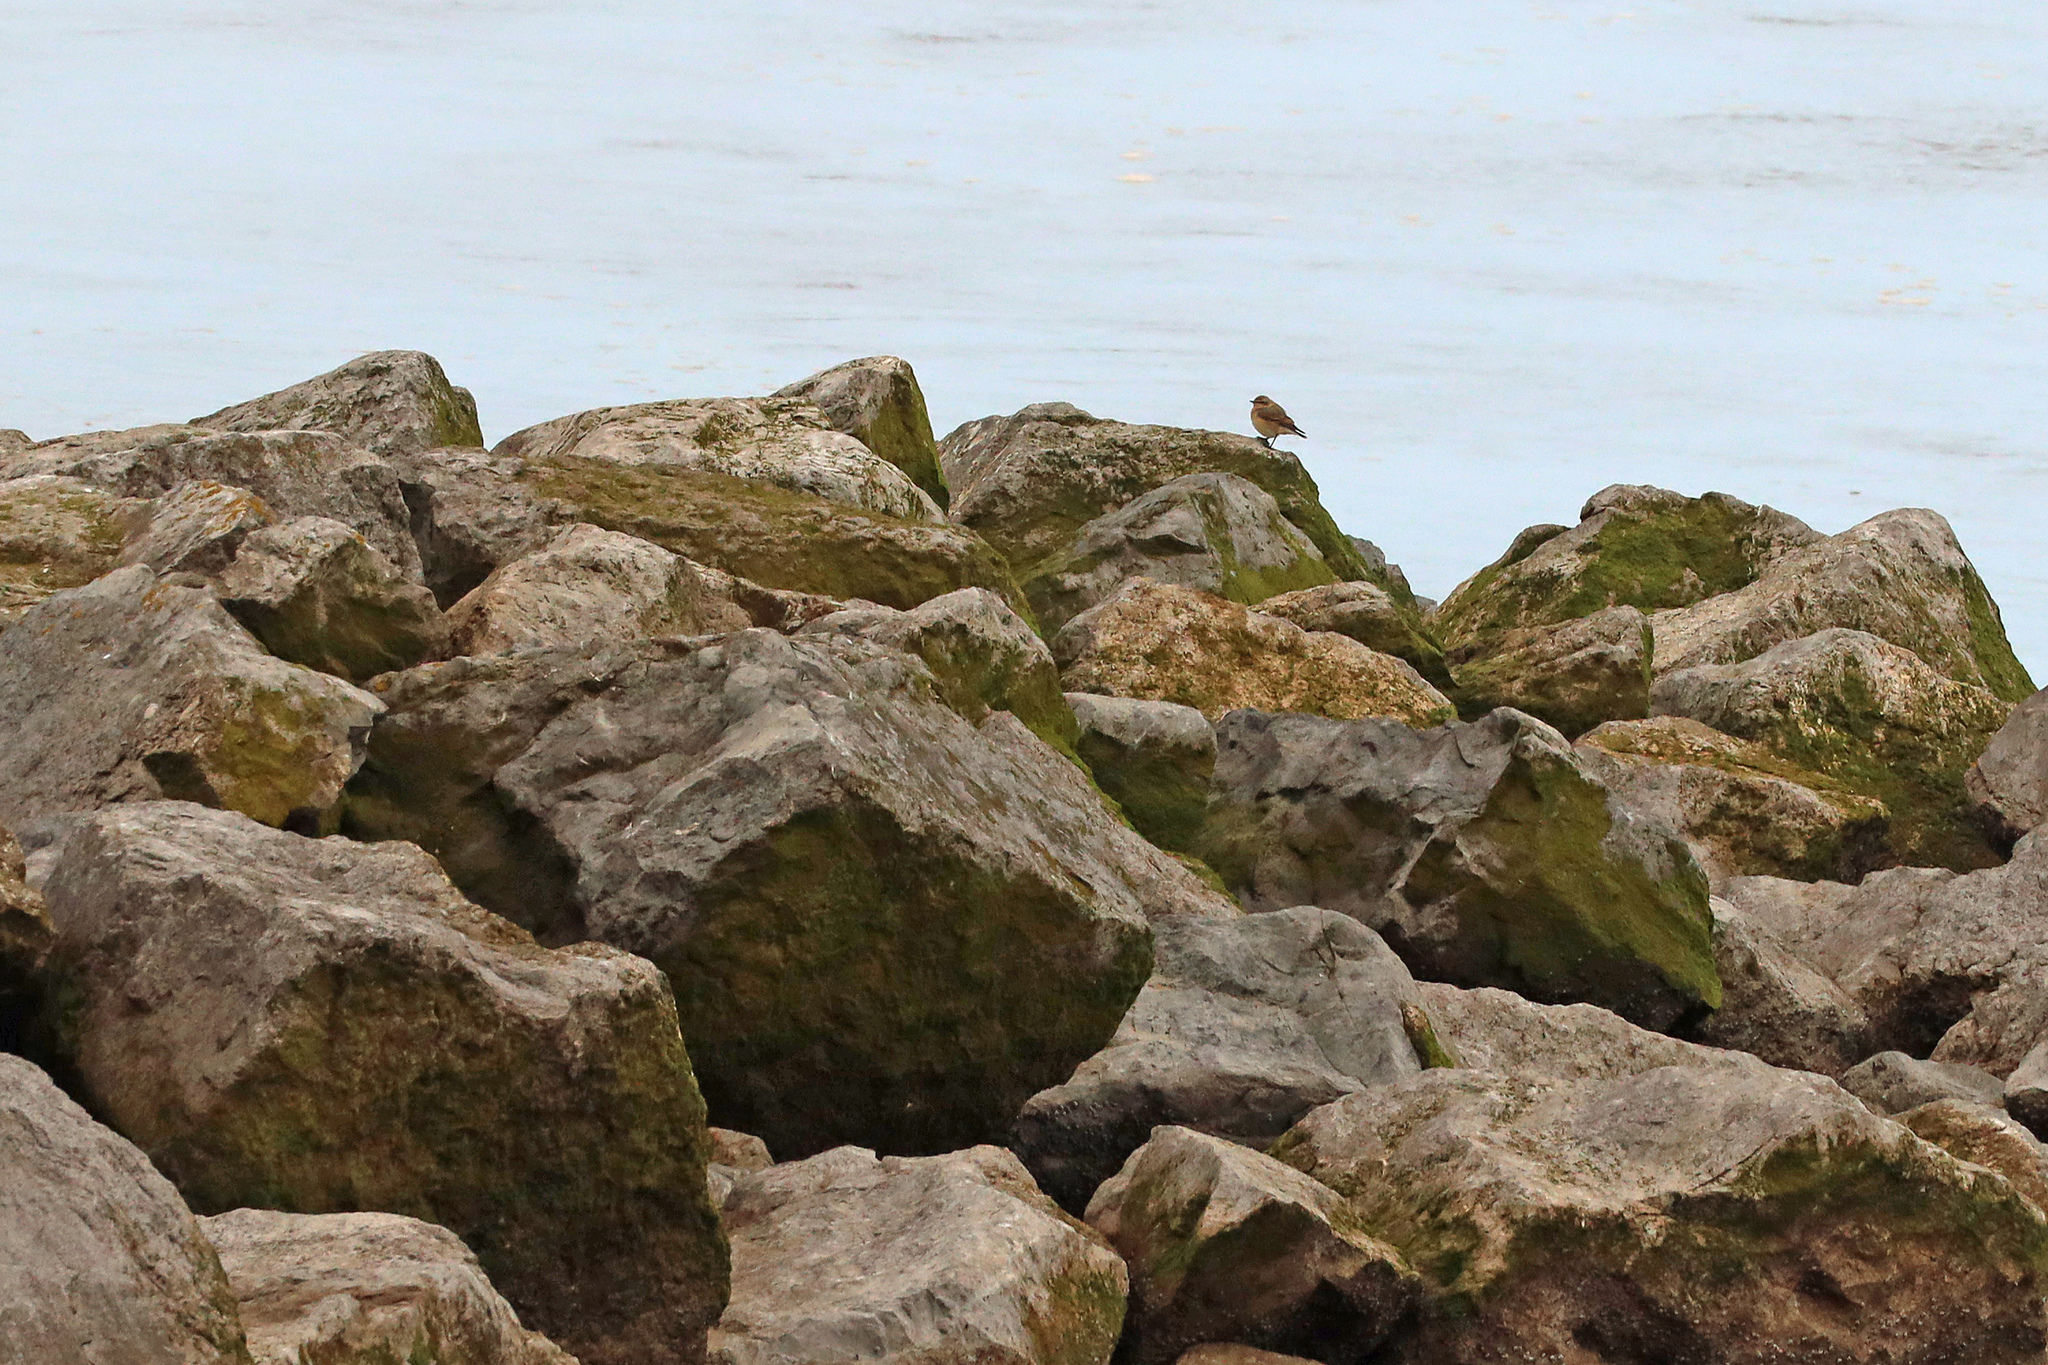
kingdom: Animalia
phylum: Chordata
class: Aves
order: Passeriformes
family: Muscicapidae
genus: Oenanthe
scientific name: Oenanthe oenanthe
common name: Northern wheatear
